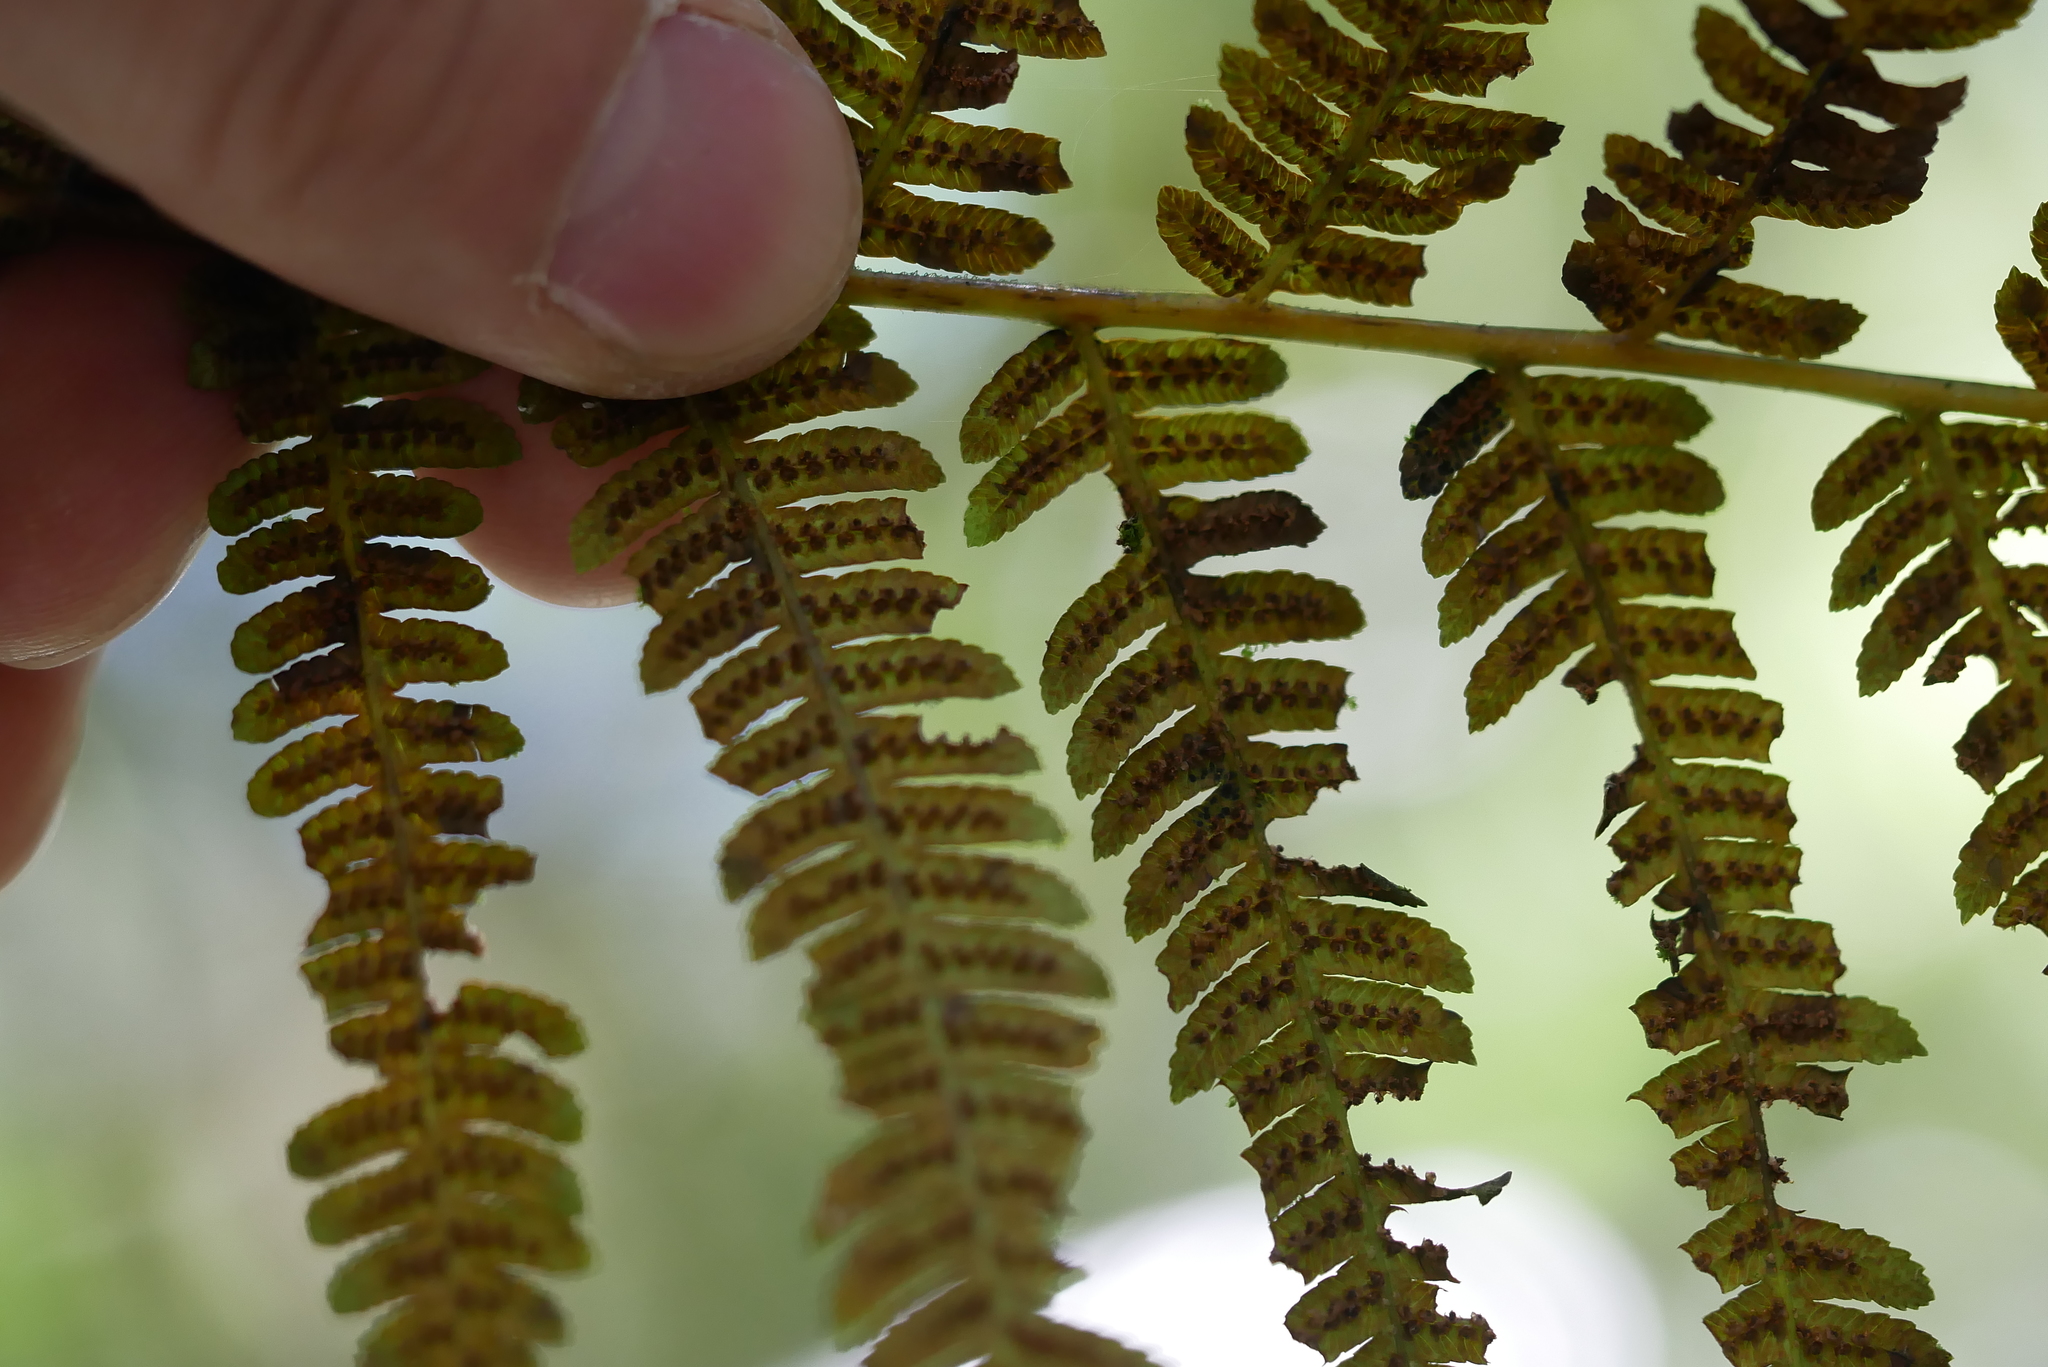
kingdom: Plantae
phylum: Tracheophyta
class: Polypodiopsida
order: Cyatheales
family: Cyatheaceae
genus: Alsophila
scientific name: Alsophila spinulosa
